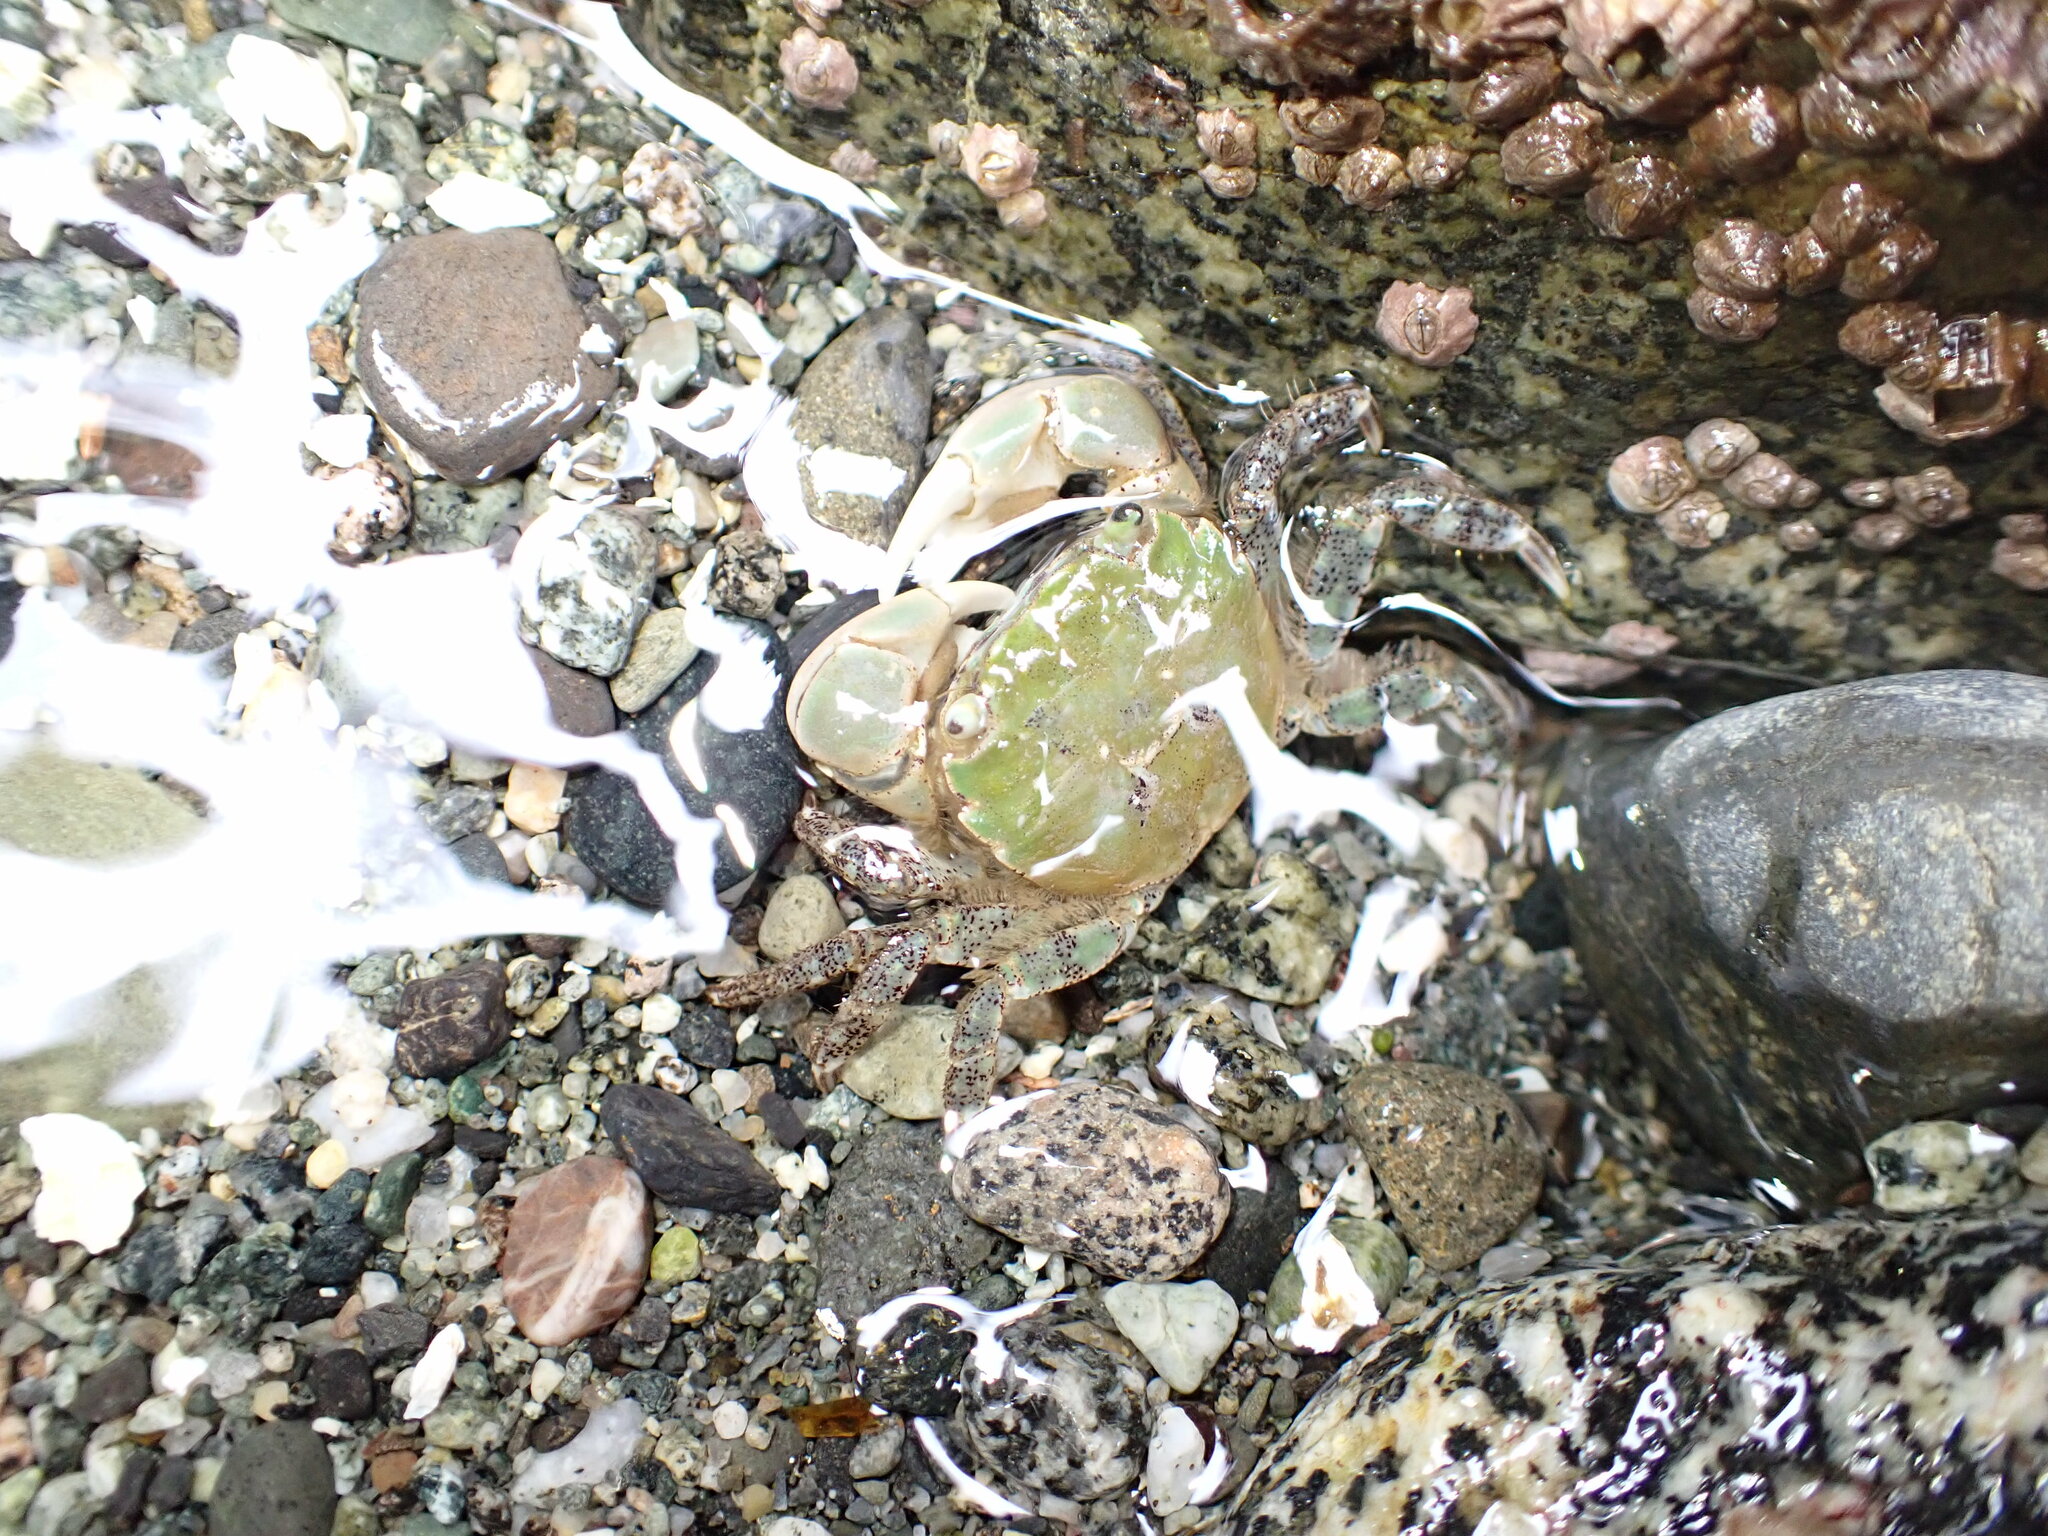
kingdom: Animalia
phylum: Arthropoda
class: Malacostraca
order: Decapoda
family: Varunidae
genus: Hemigrapsus
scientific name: Hemigrapsus oregonensis
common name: Yellow shore crab
